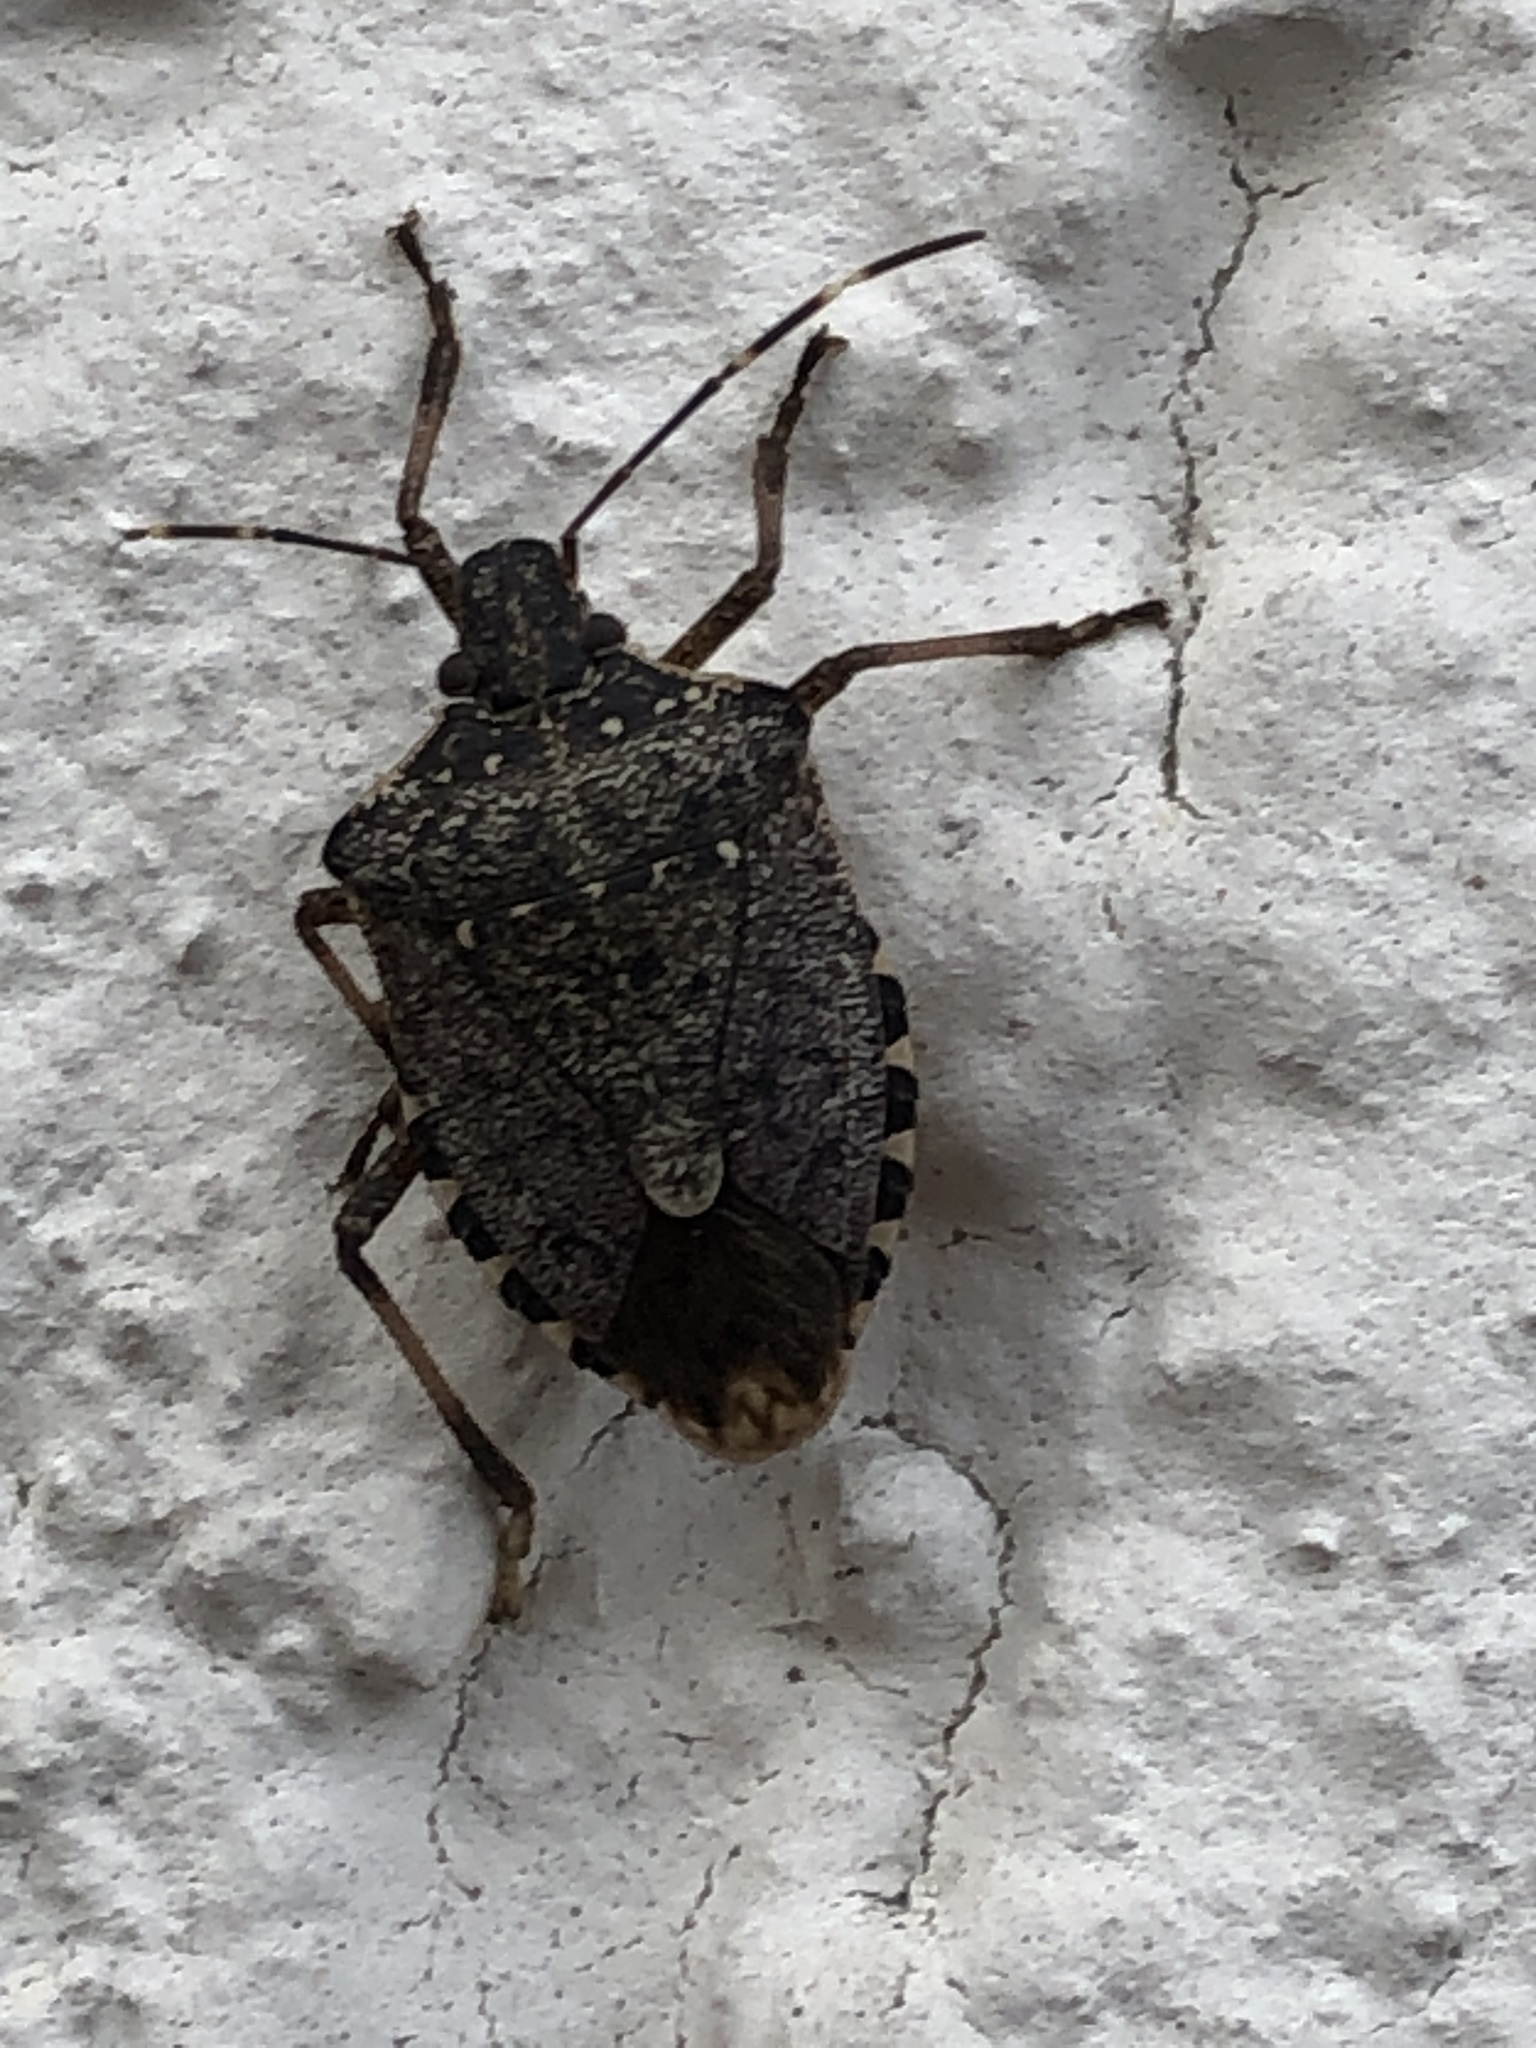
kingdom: Animalia
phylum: Arthropoda
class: Insecta
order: Hemiptera
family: Pentatomidae
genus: Halyomorpha
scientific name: Halyomorpha halys
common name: Brown marmorated stink bug
